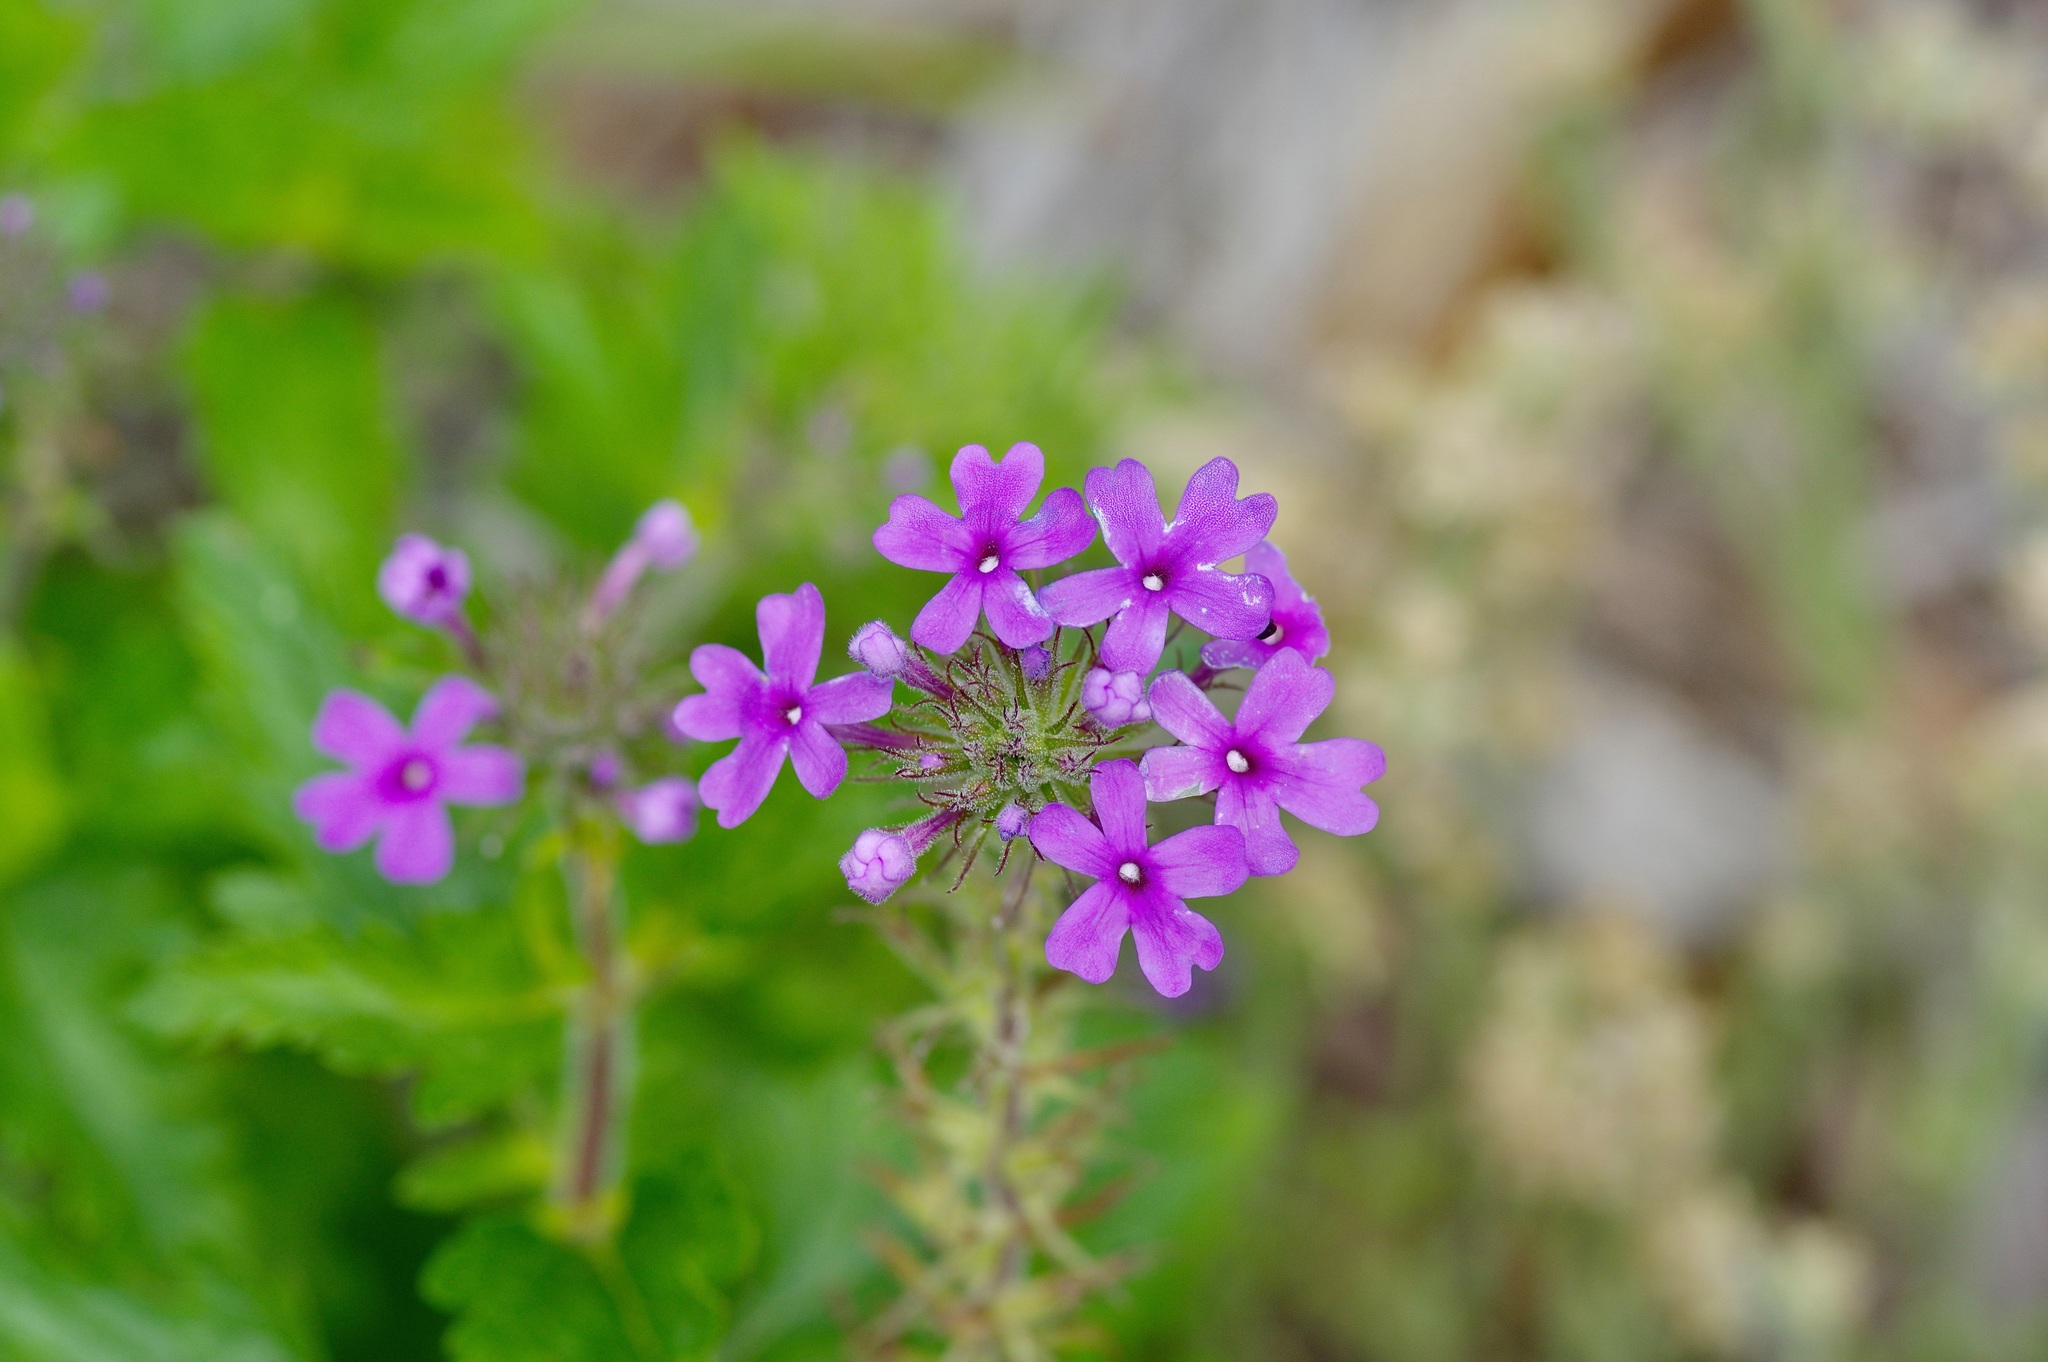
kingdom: Plantae
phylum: Tracheophyta
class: Magnoliopsida
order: Lamiales
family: Verbenaceae
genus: Verbena
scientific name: Verbena canadensis
